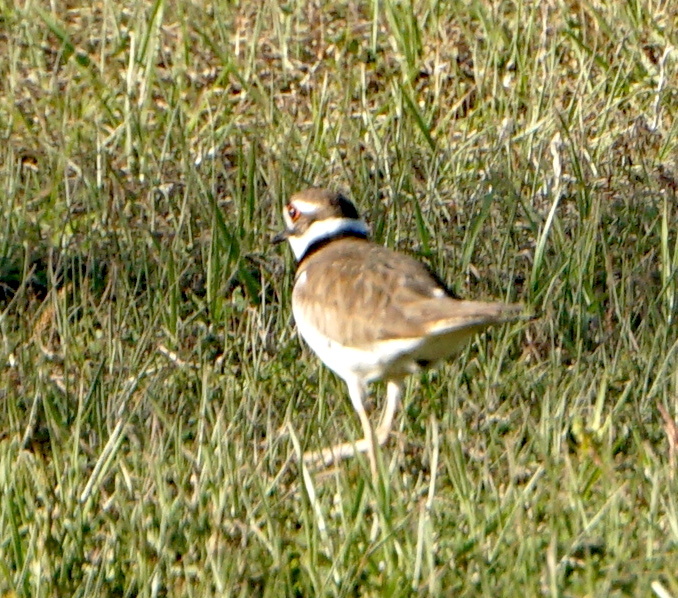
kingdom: Animalia
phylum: Chordata
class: Aves
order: Charadriiformes
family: Charadriidae
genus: Charadrius
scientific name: Charadrius vociferus
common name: Killdeer
